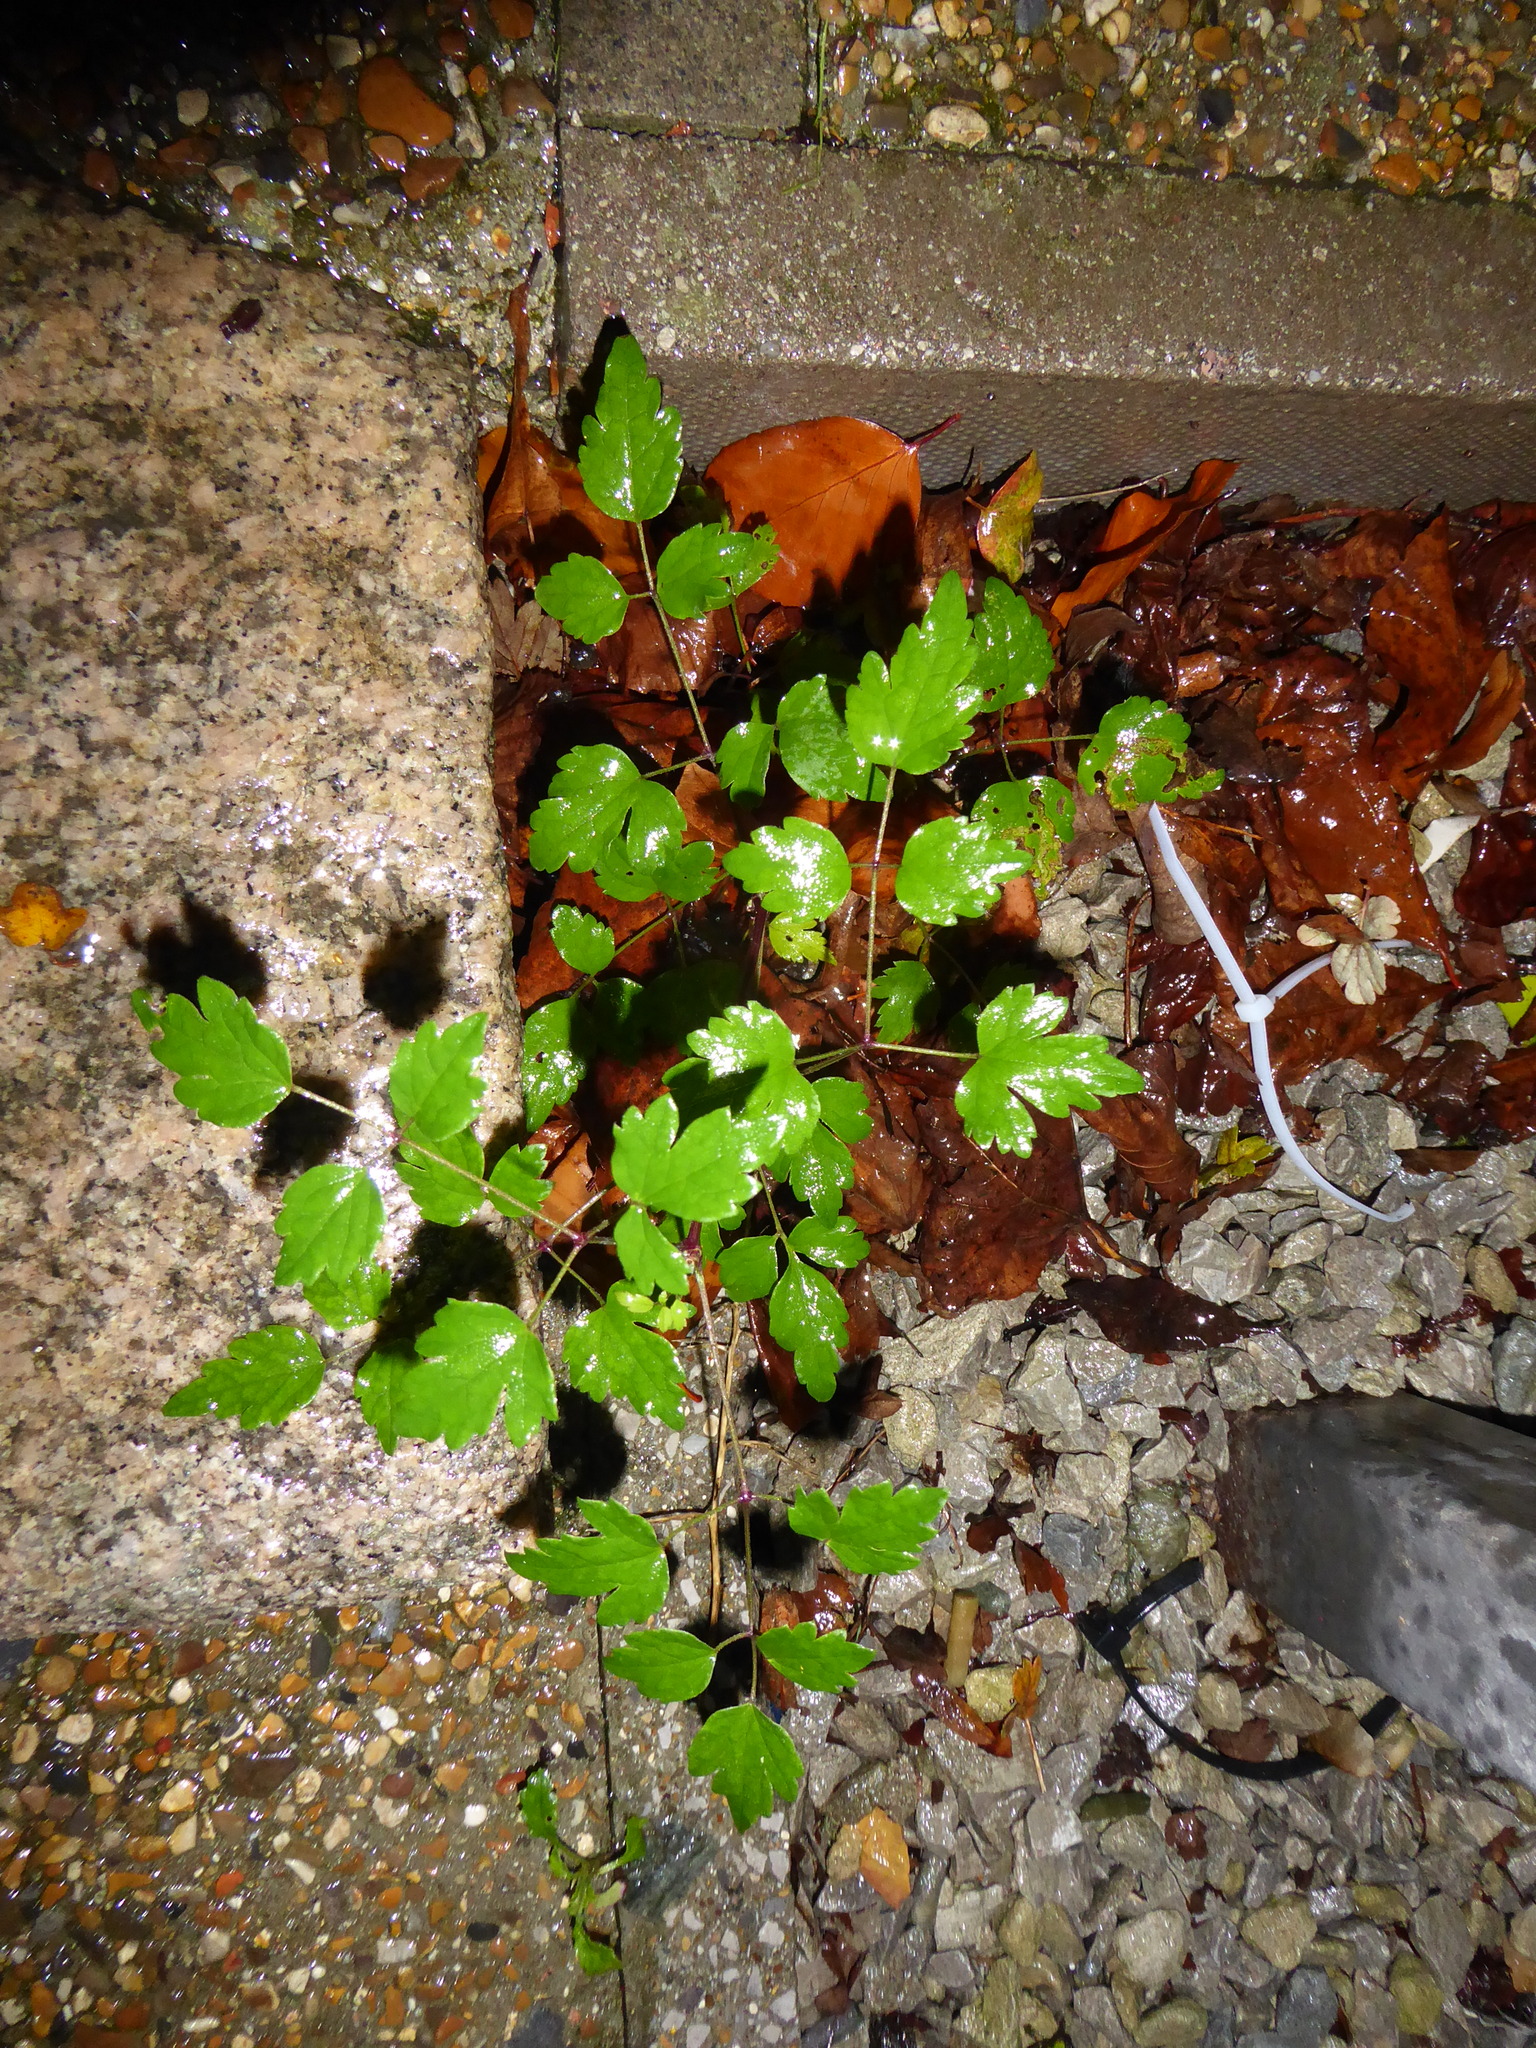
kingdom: Plantae
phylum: Tracheophyta
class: Magnoliopsida
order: Ranunculales
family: Ranunculaceae
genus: Clematis
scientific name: Clematis vitalba
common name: Evergreen clematis
